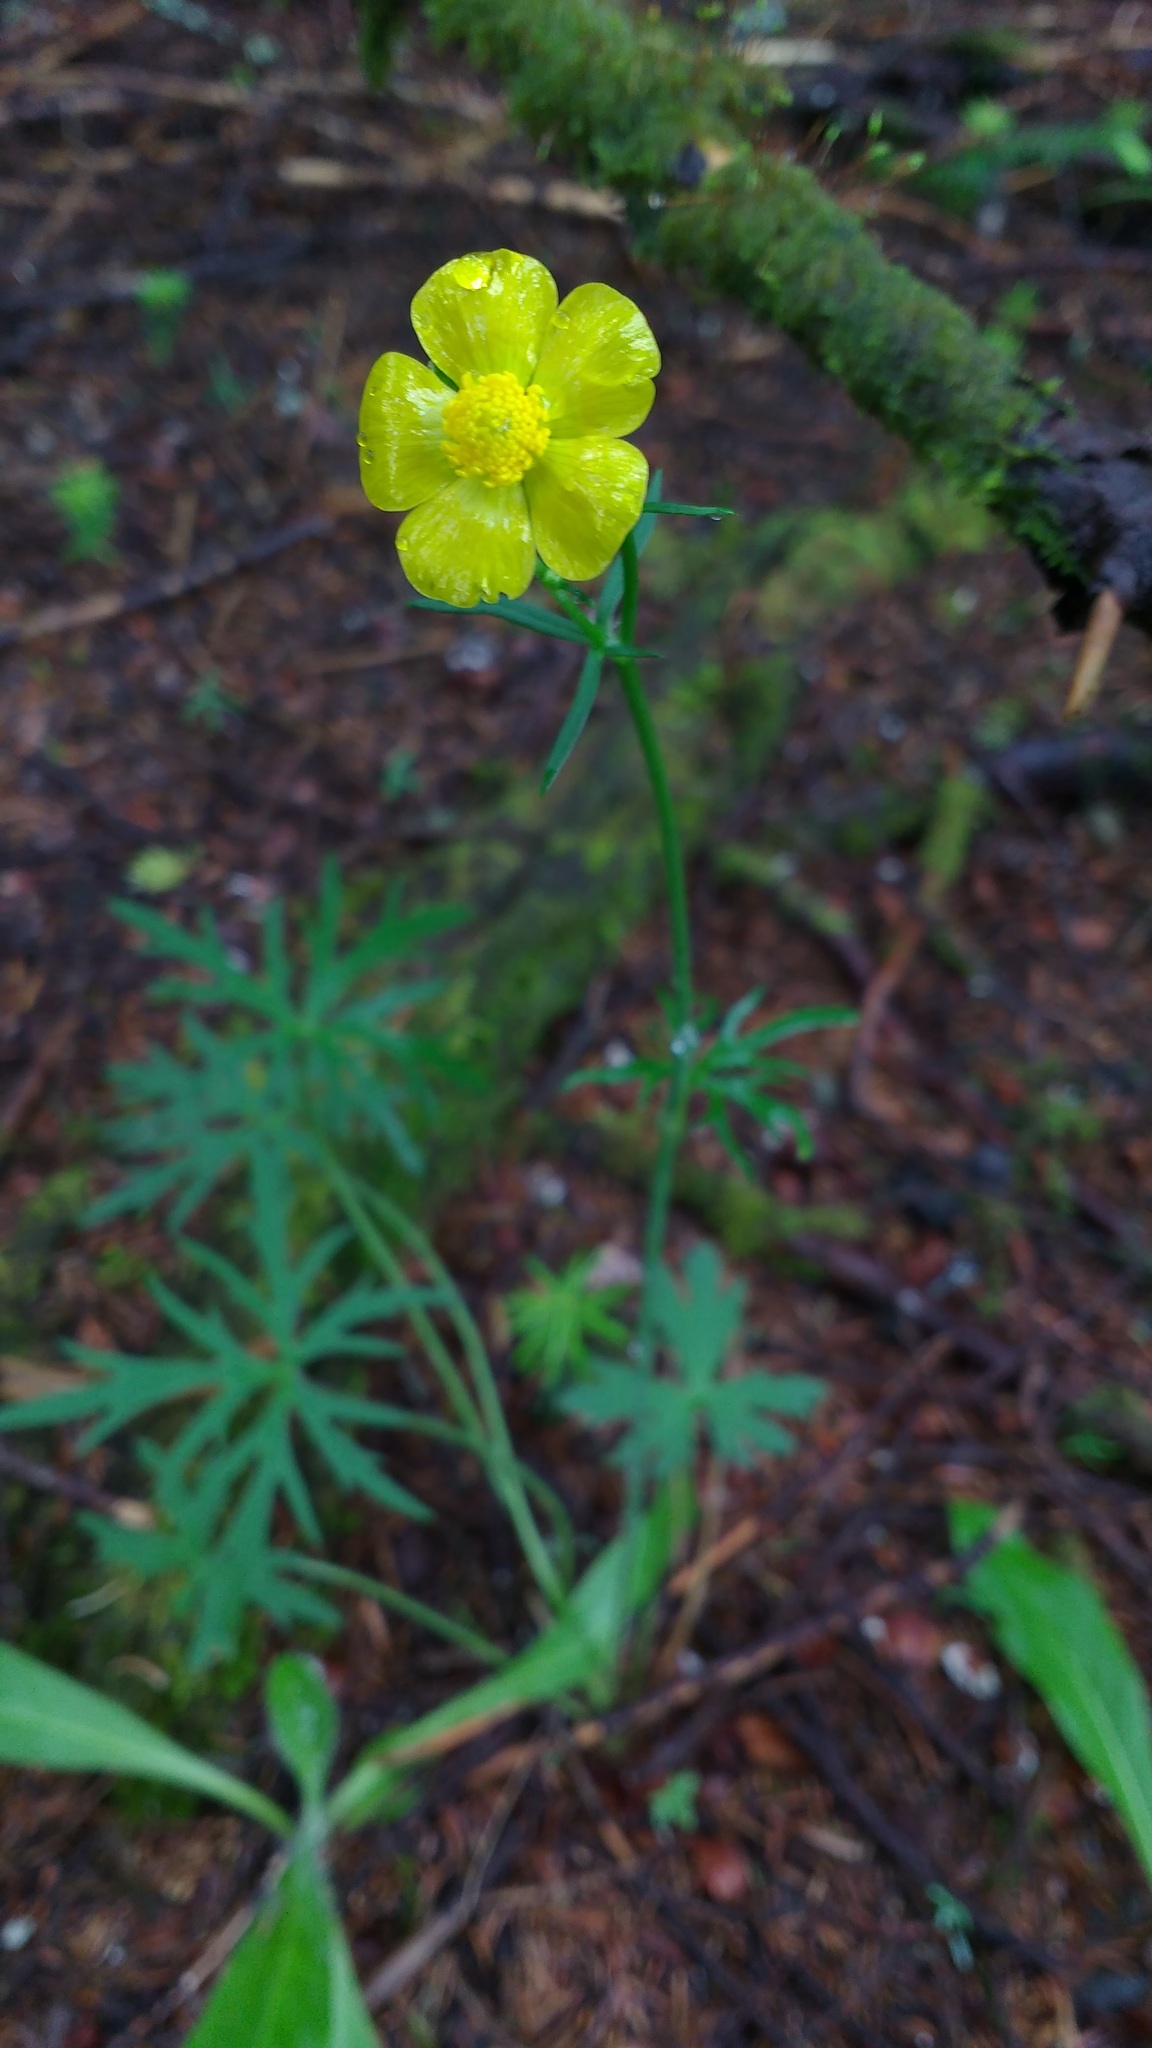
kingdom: Plantae
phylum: Tracheophyta
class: Magnoliopsida
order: Ranunculales
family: Ranunculaceae
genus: Ranunculus
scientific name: Ranunculus acris
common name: Meadow buttercup
